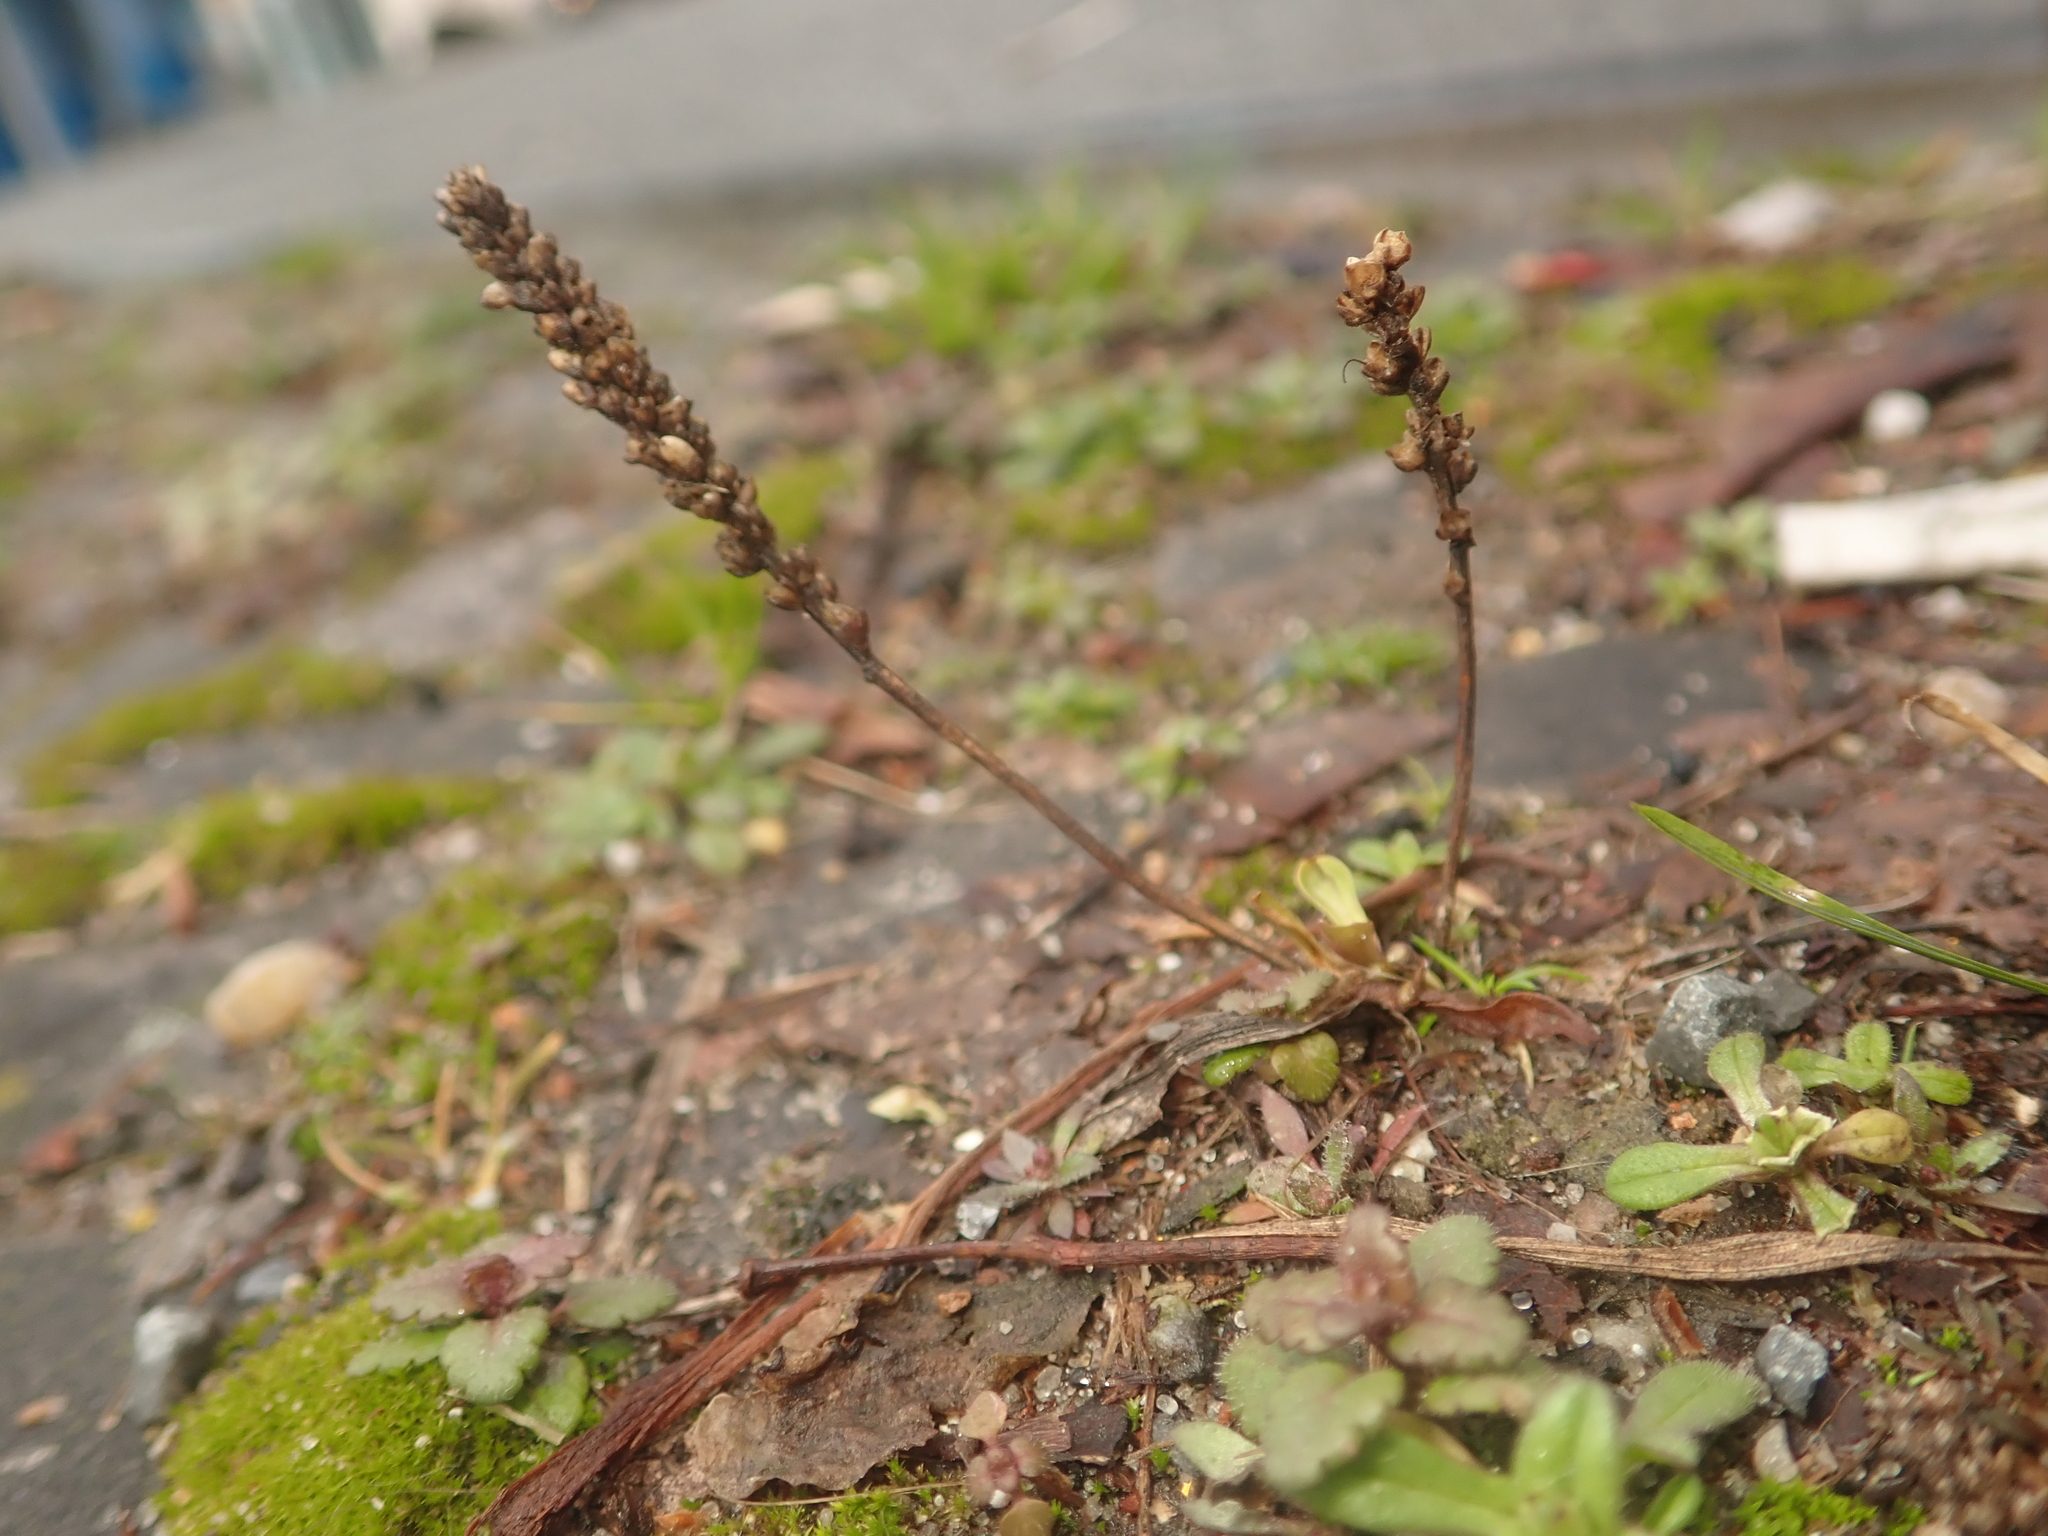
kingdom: Plantae
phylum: Tracheophyta
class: Magnoliopsida
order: Lamiales
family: Plantaginaceae
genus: Plantago
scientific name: Plantago major
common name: Common plantain
